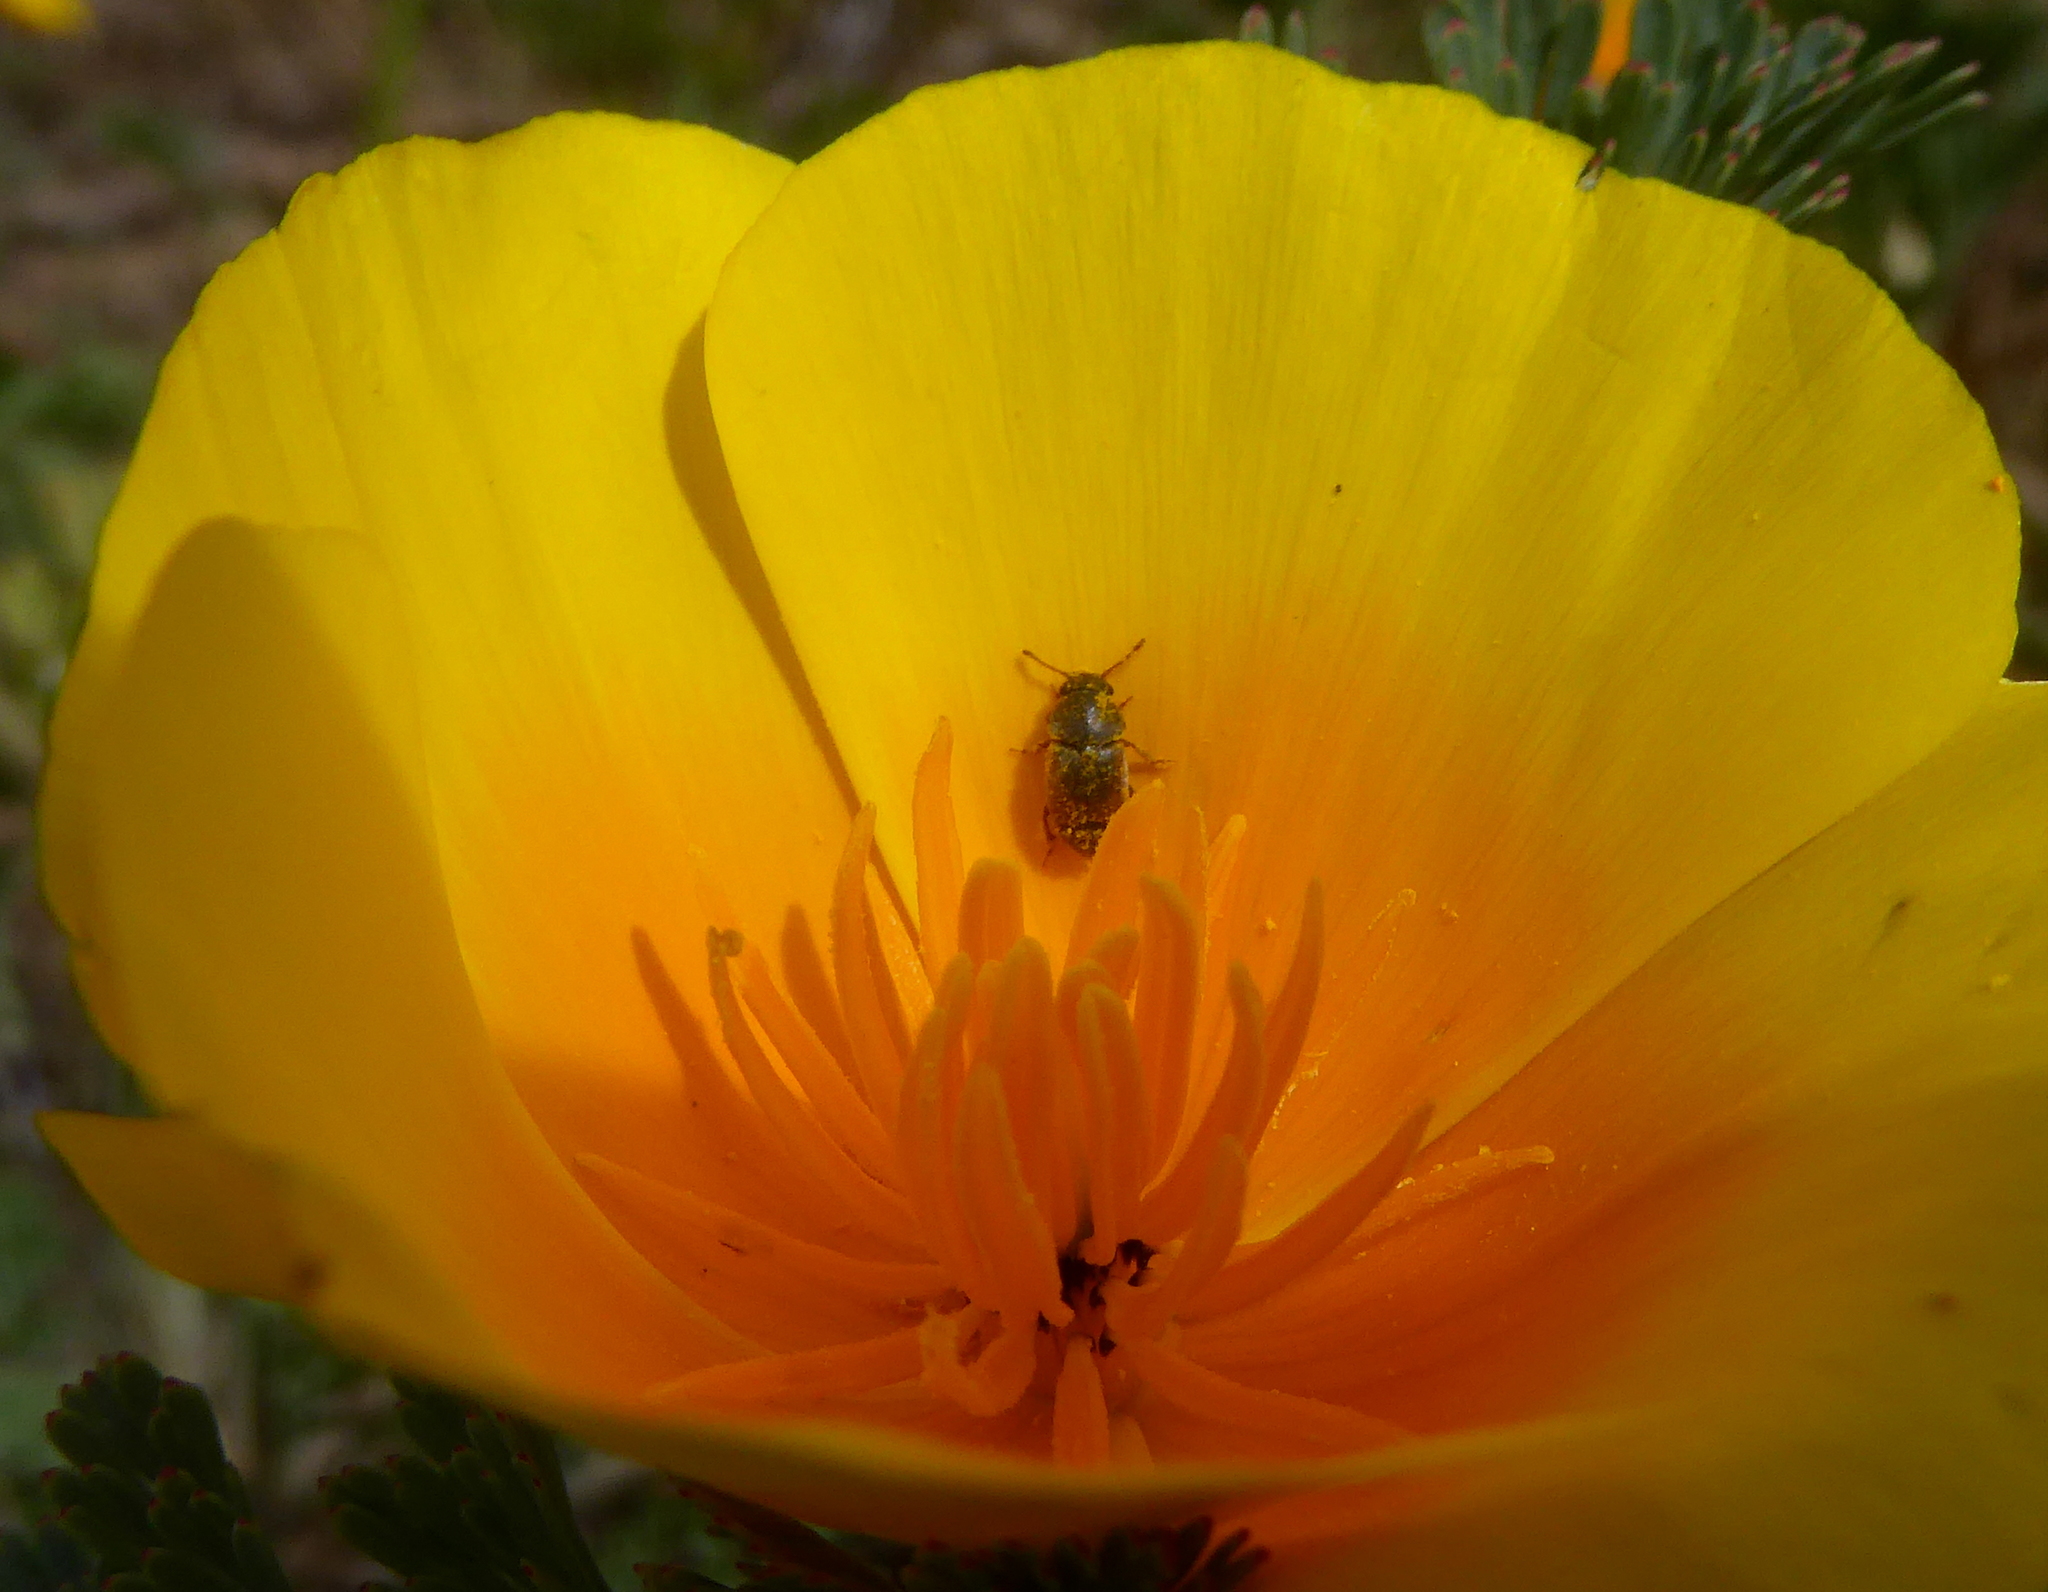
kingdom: Animalia
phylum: Arthropoda
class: Insecta
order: Coleoptera
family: Kateretidae
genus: Amartus
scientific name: Amartus tinctus
